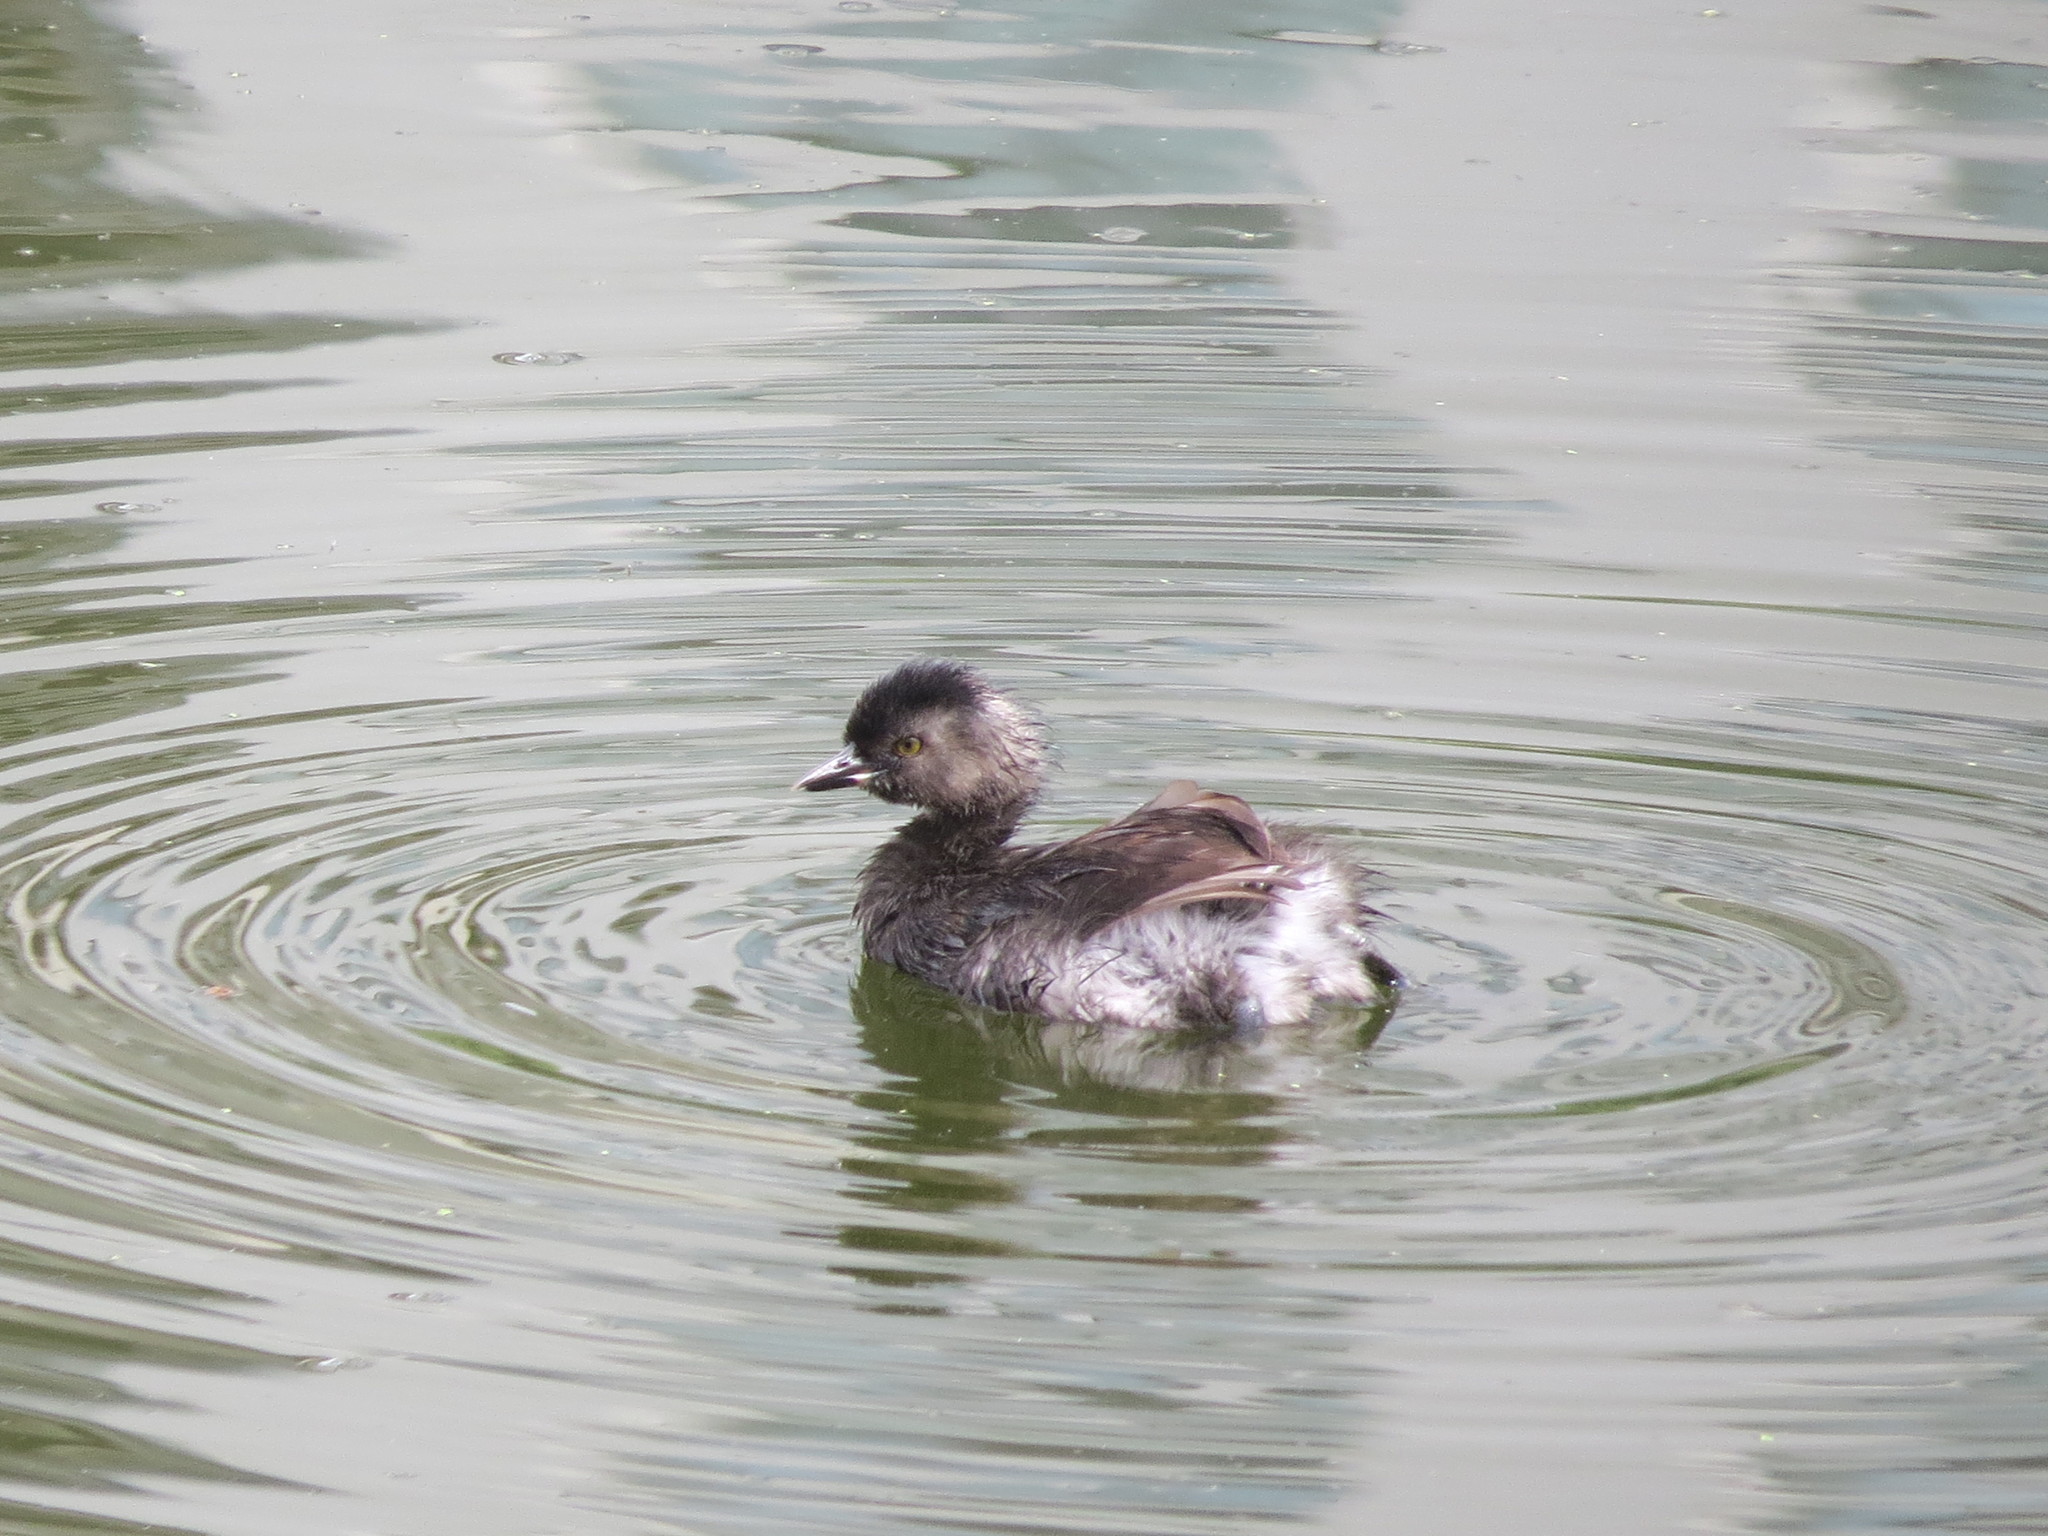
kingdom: Animalia
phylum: Chordata
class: Aves
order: Podicipediformes
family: Podicipedidae
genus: Tachybaptus
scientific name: Tachybaptus dominicus
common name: Least grebe
